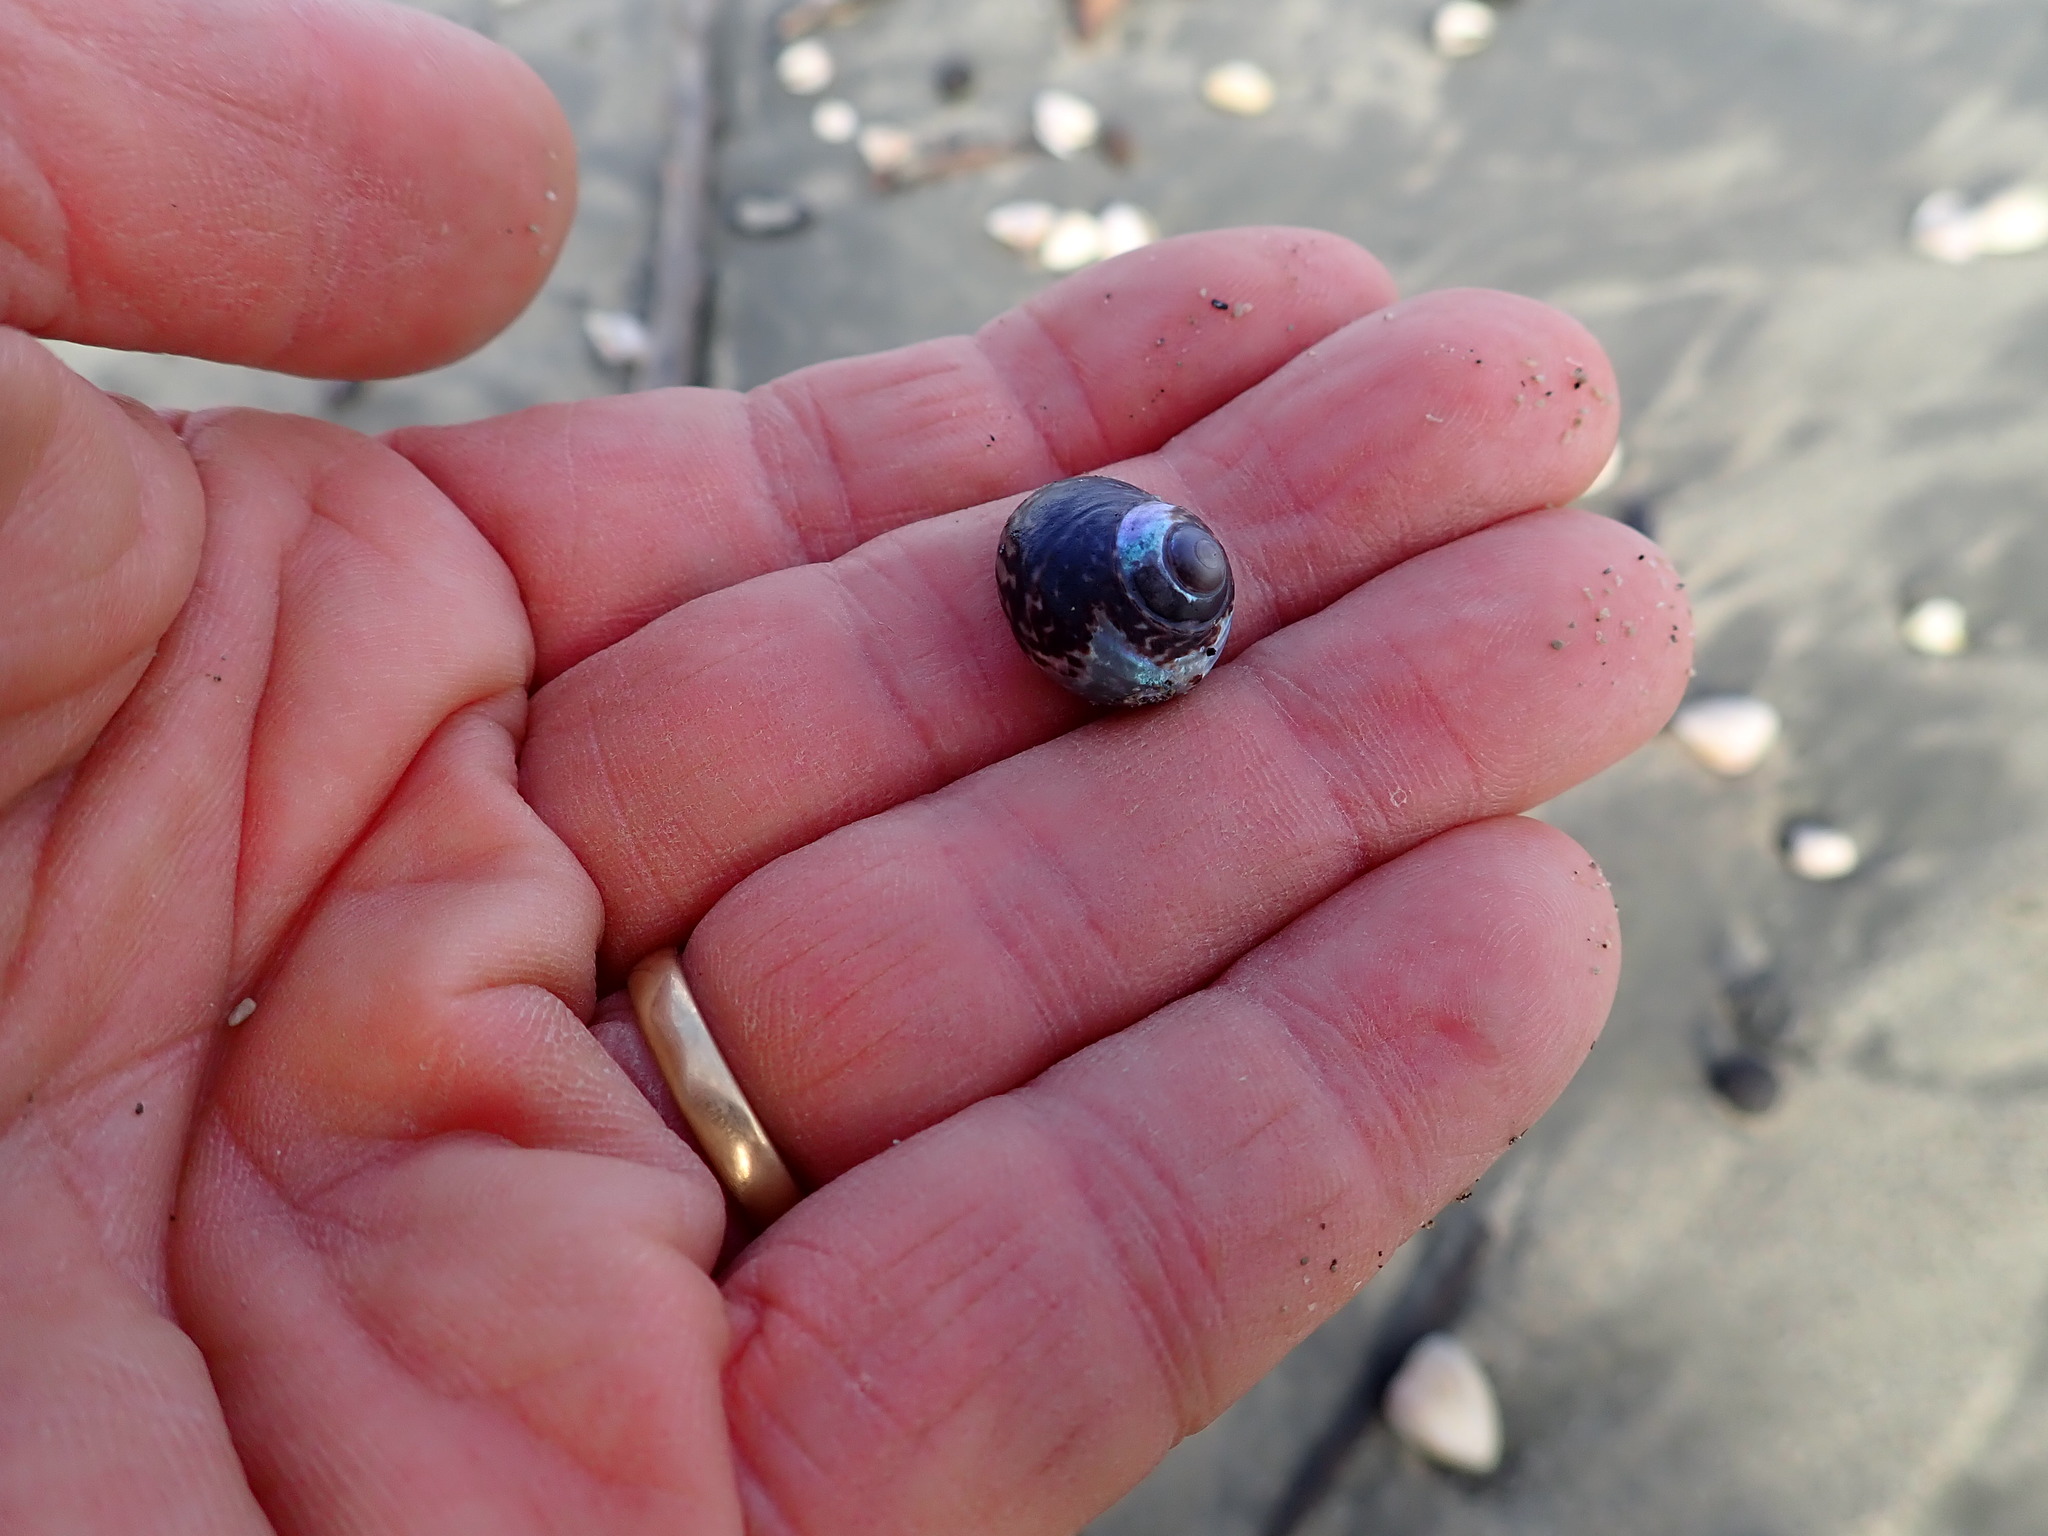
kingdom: Animalia
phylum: Mollusca
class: Gastropoda
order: Trochida
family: Trochidae
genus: Diloma
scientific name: Diloma subrostratum
